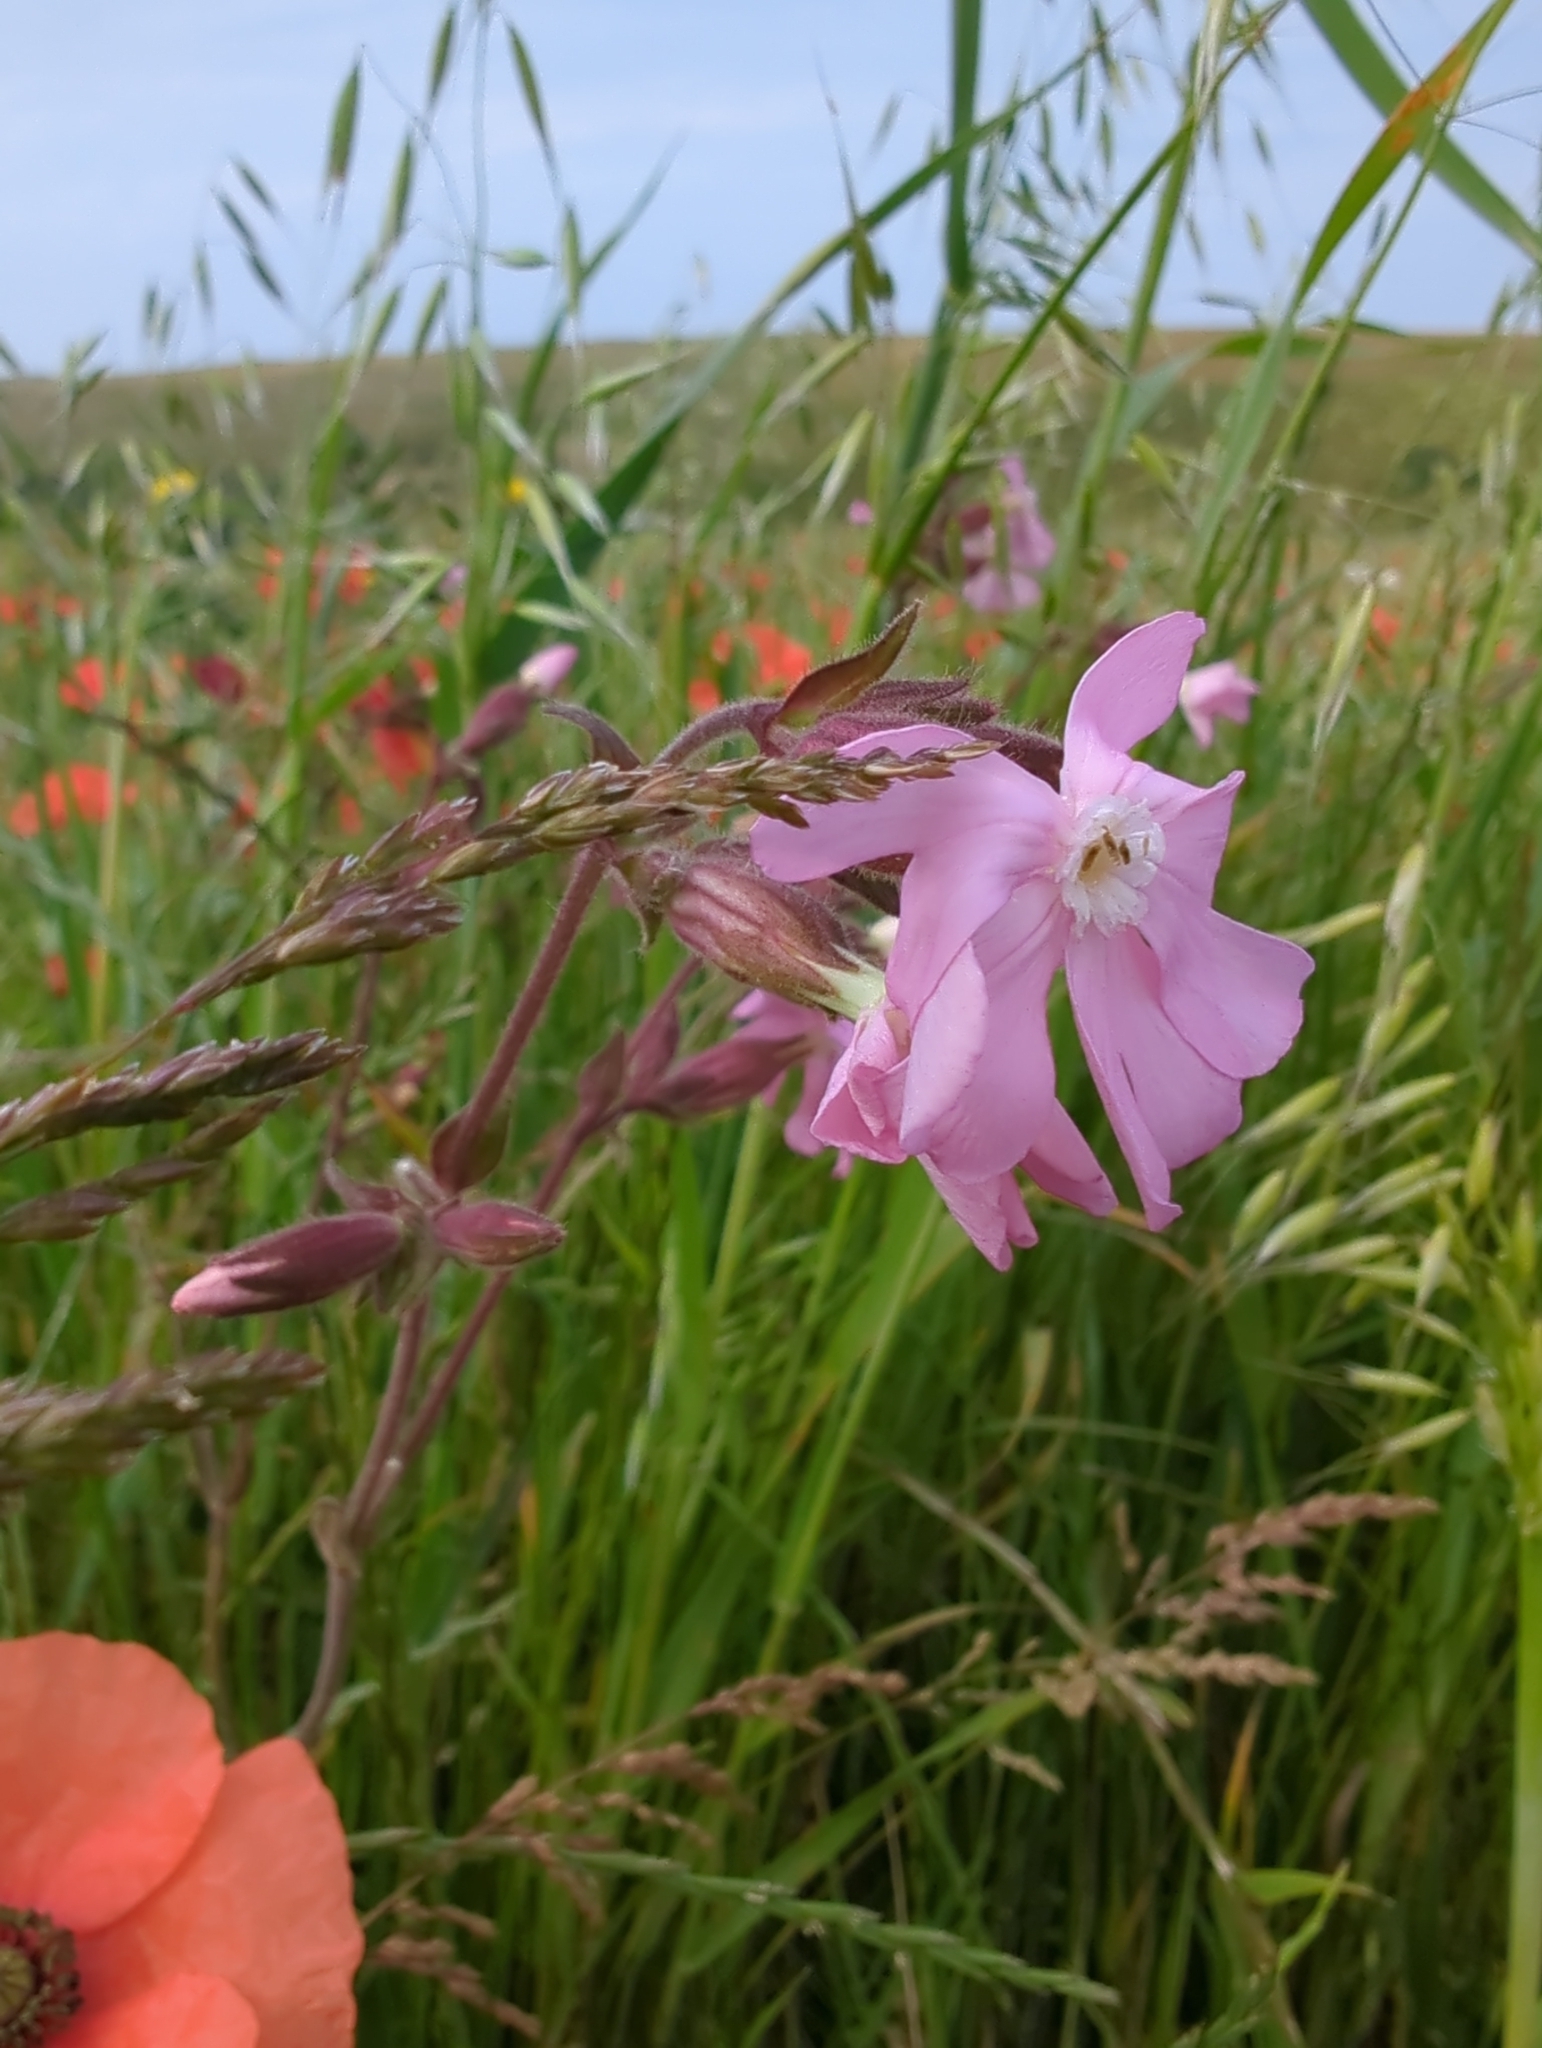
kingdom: Plantae
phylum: Tracheophyta
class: Magnoliopsida
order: Caryophyllales
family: Caryophyllaceae
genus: Silene
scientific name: Silene dioica
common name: Red campion
